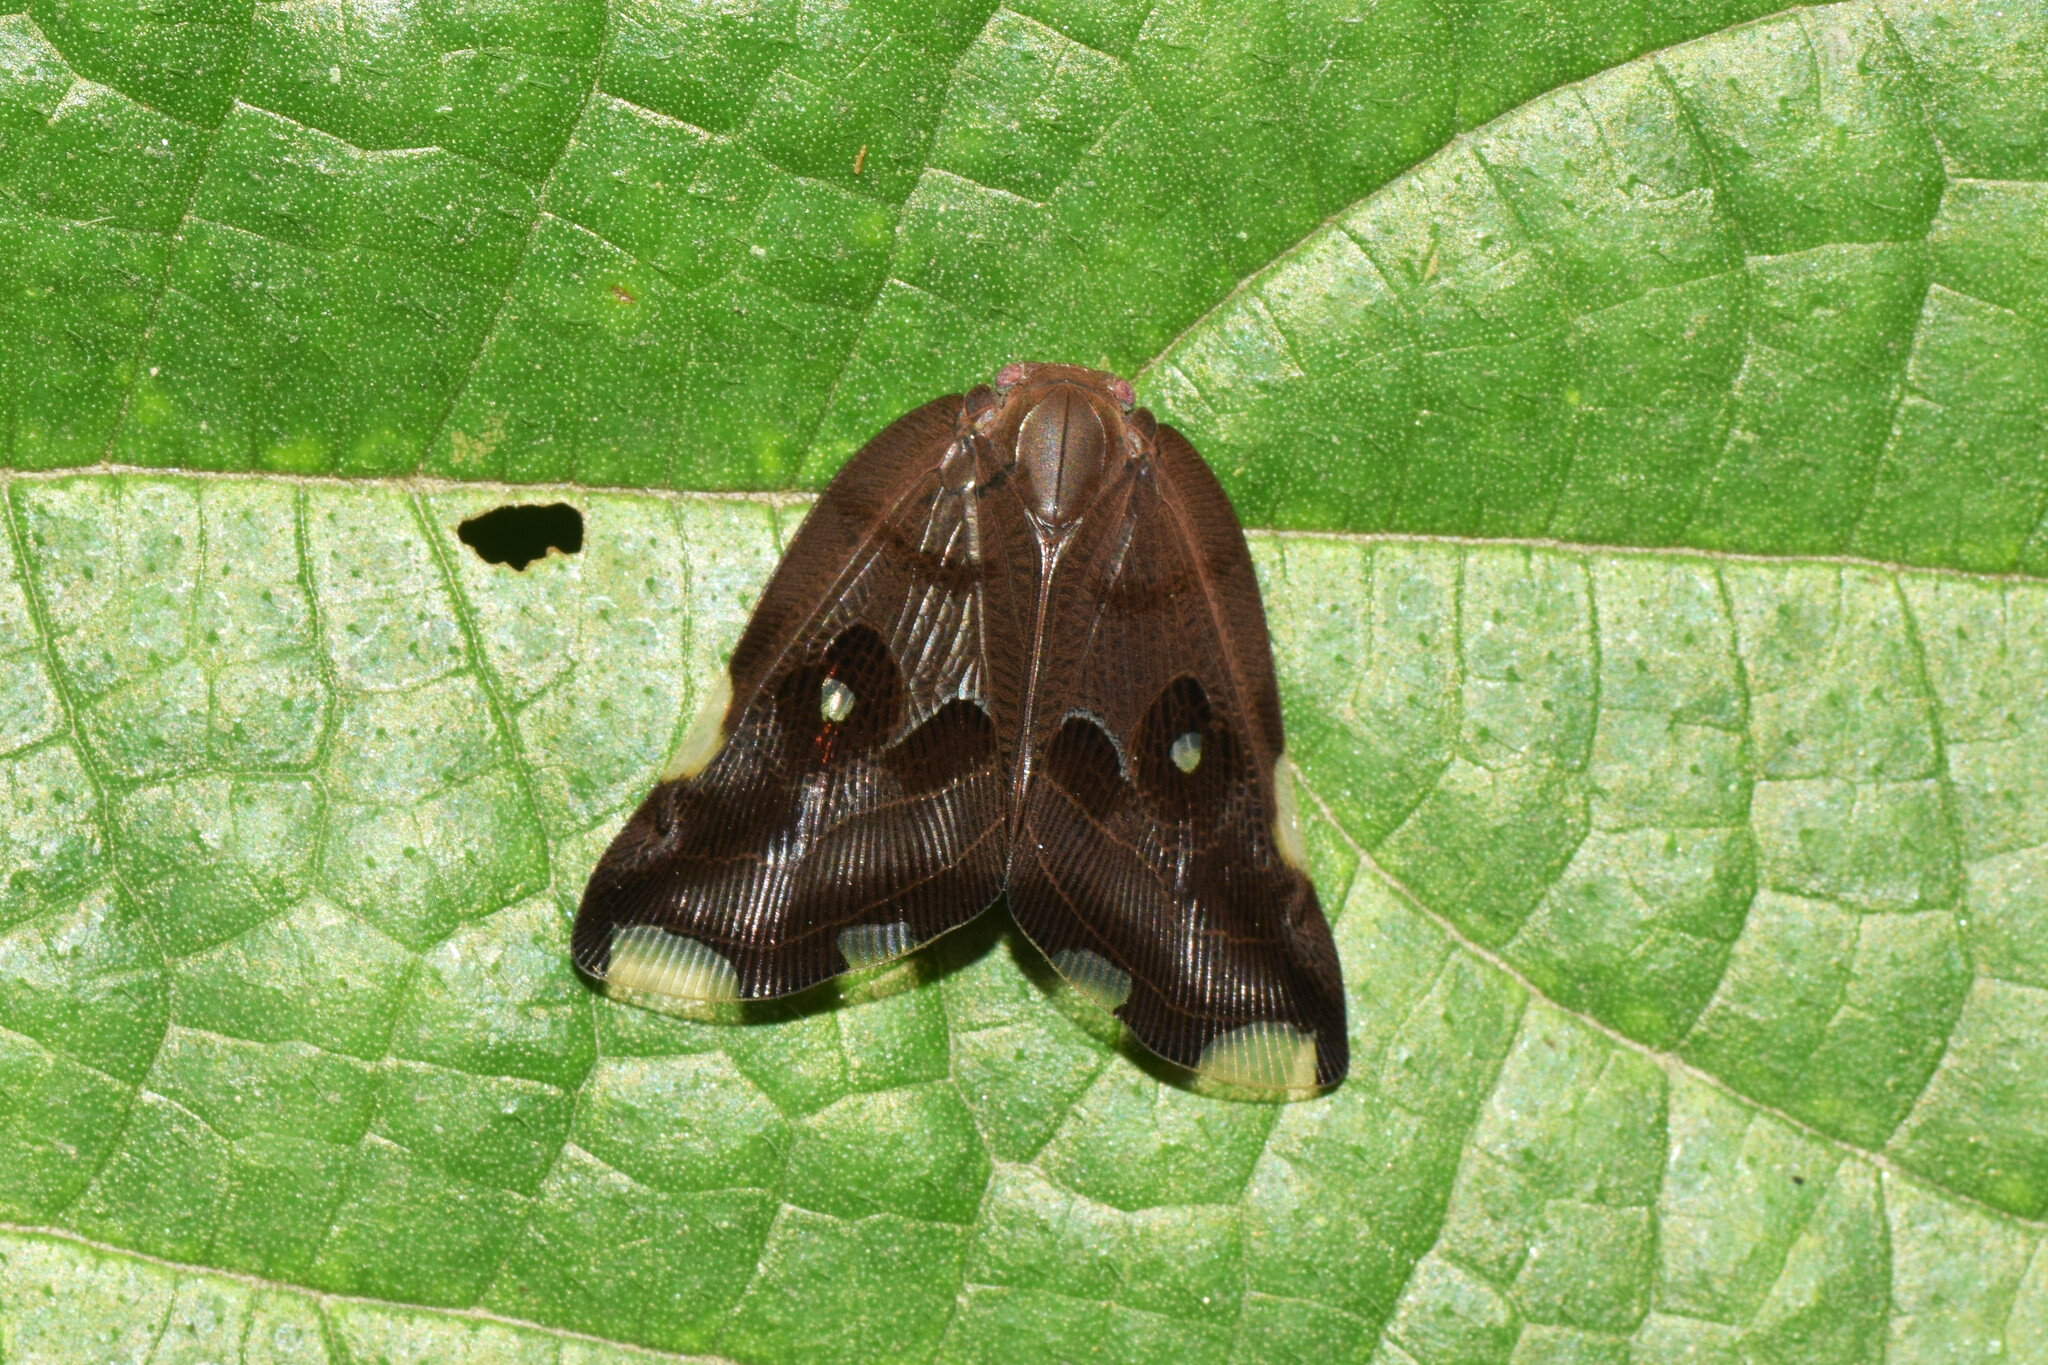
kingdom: Animalia
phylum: Arthropoda
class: Insecta
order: Hemiptera
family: Ricaniidae
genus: Pochazia
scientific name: Pochazia guttifera
